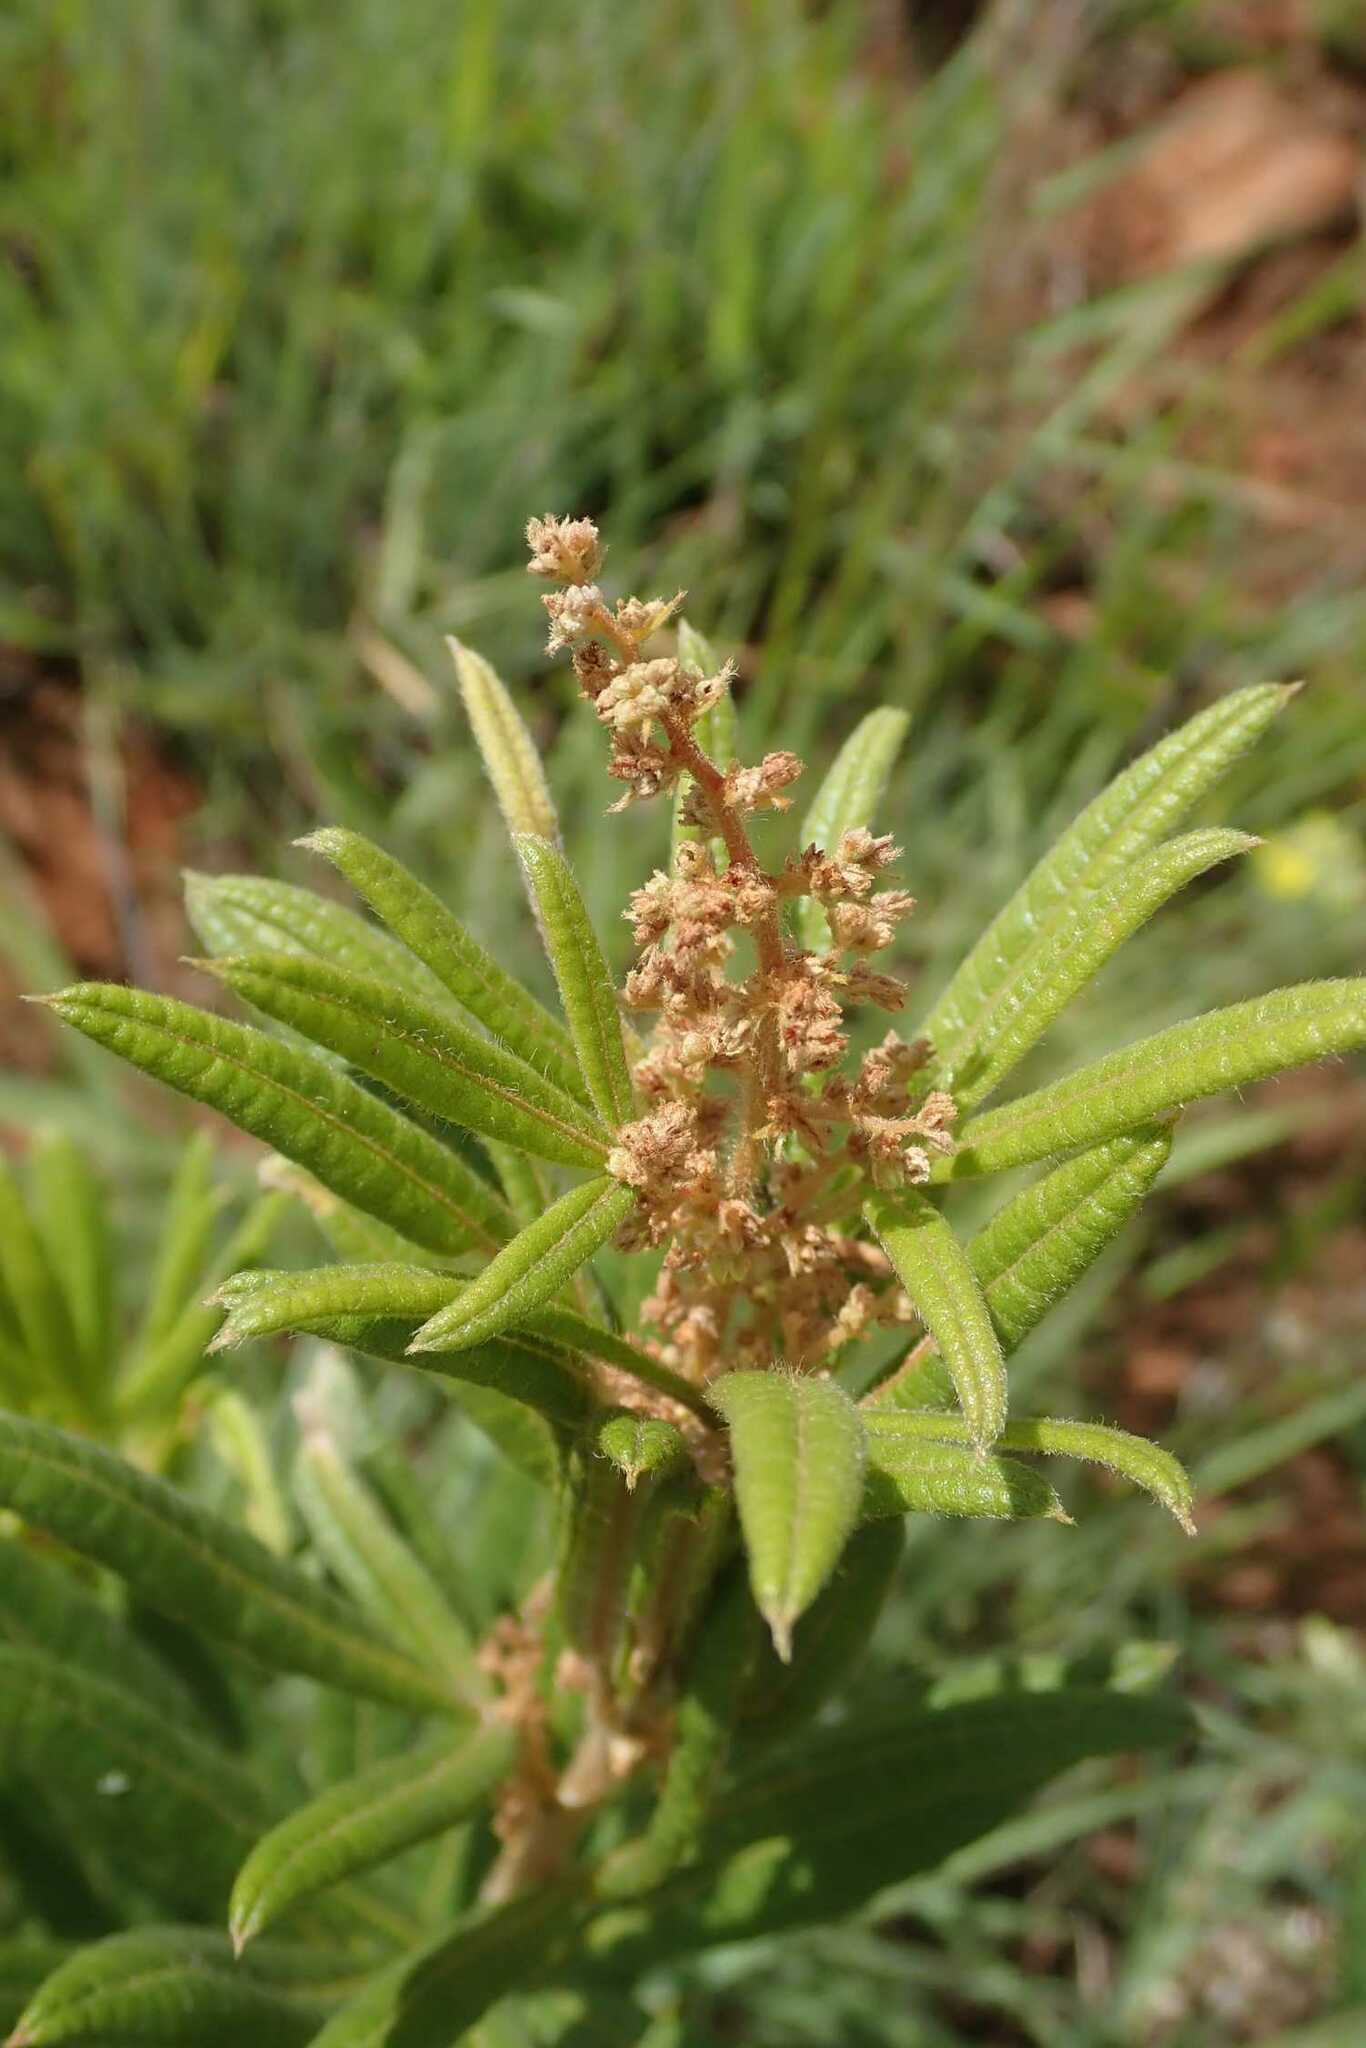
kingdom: Plantae
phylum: Tracheophyta
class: Magnoliopsida
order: Sapindales
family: Anacardiaceae
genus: Searsia
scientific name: Searsia discolor
